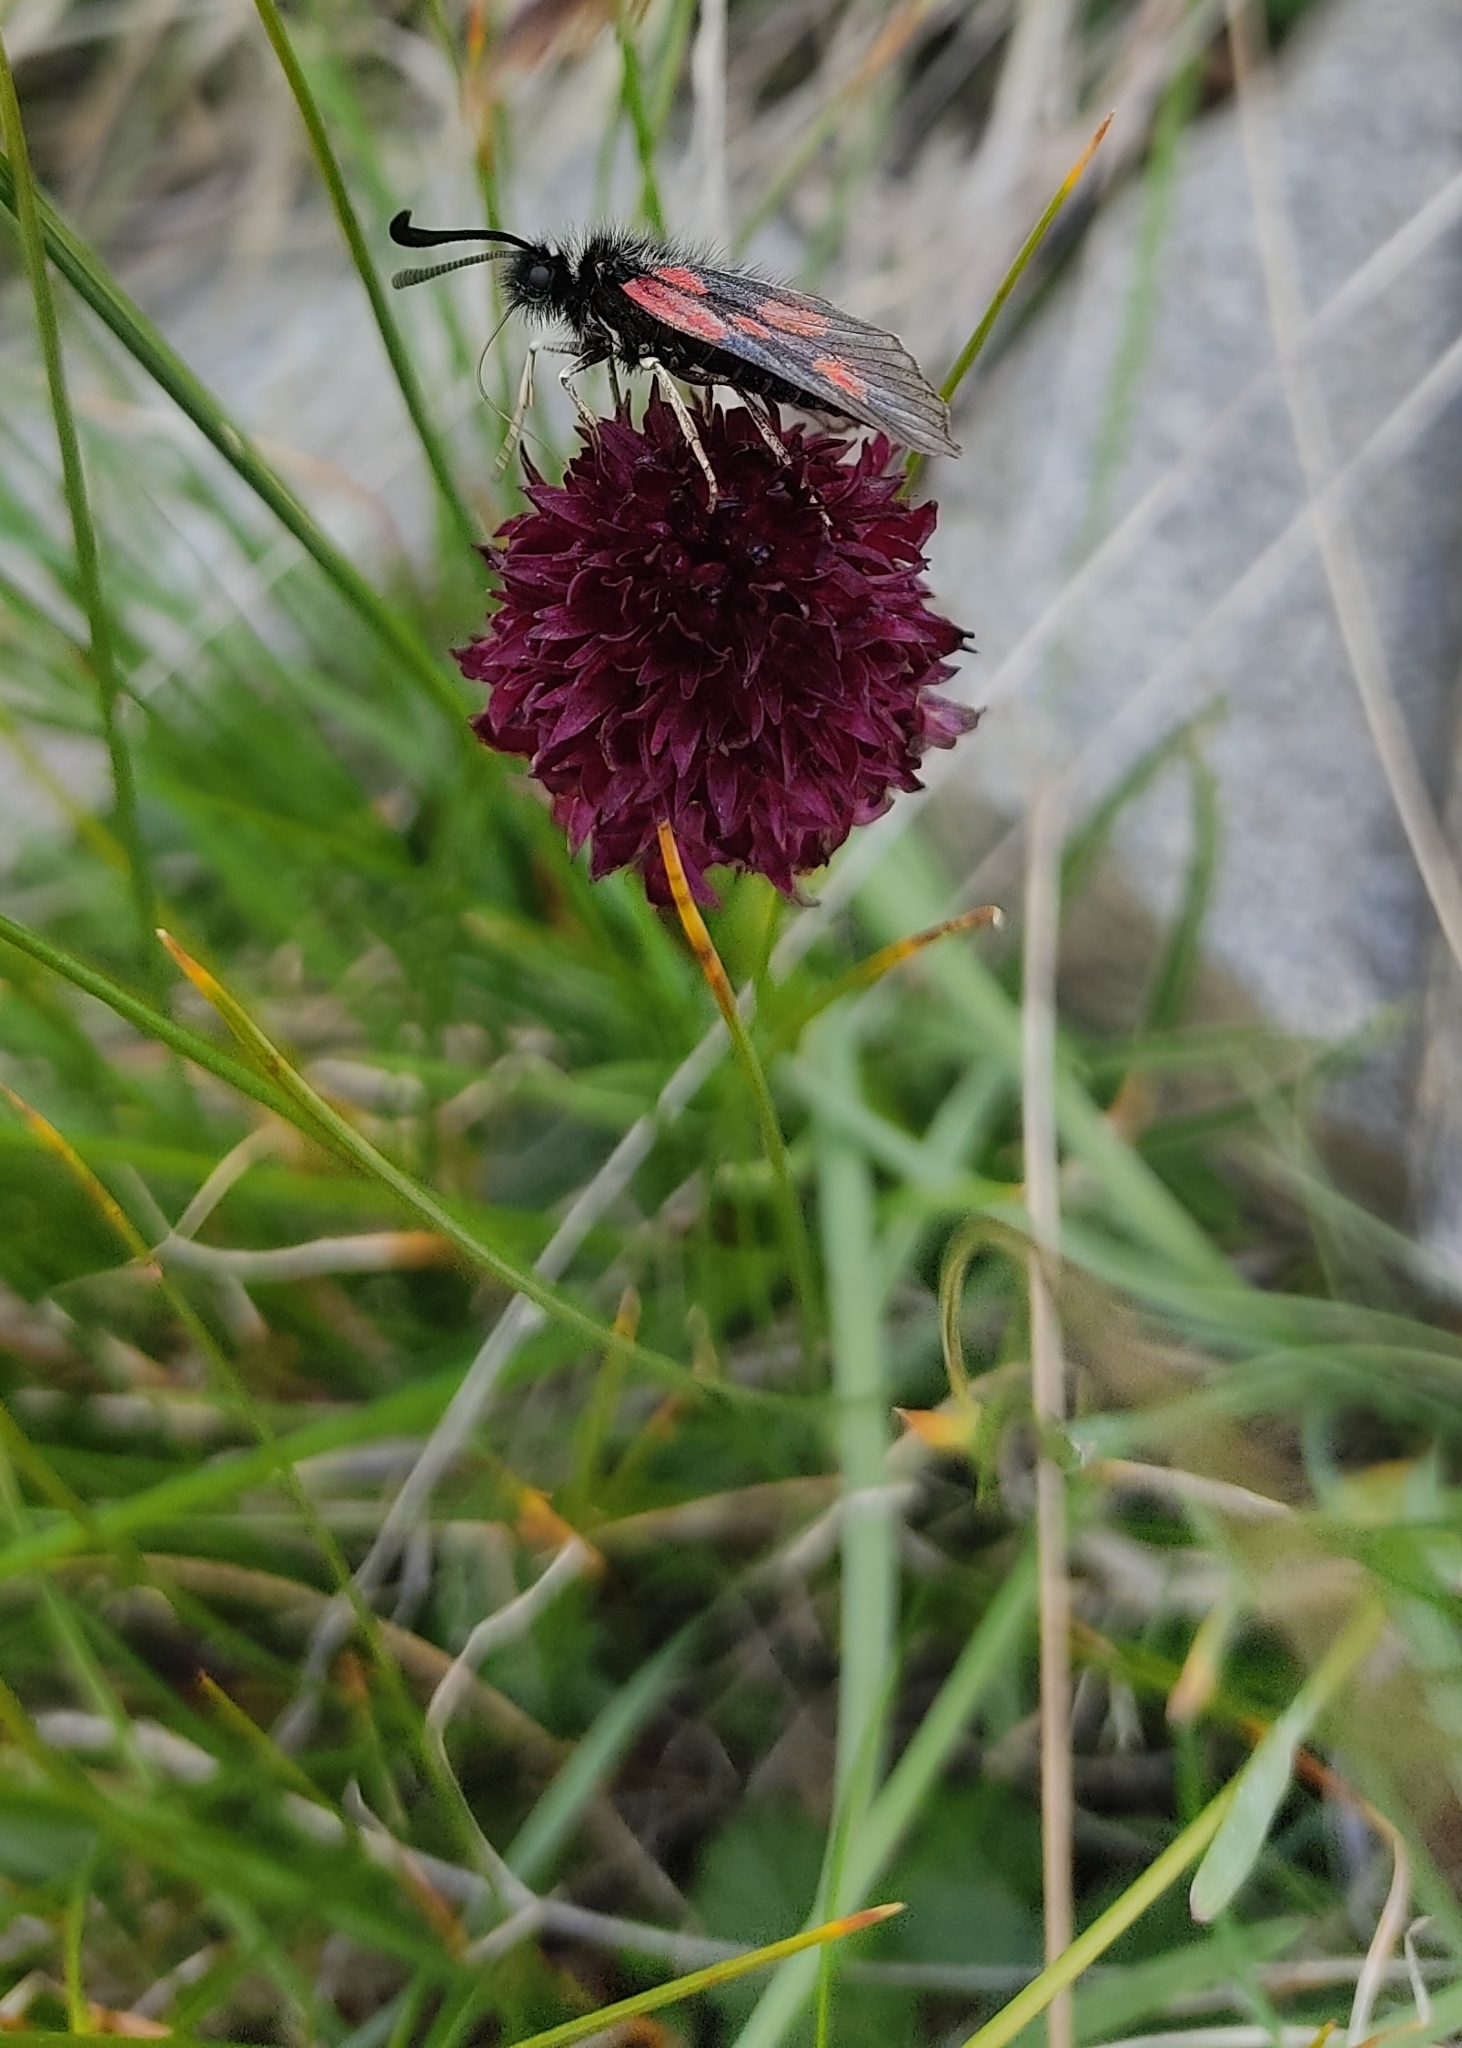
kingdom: Plantae
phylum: Tracheophyta
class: Liliopsida
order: Asparagales
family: Orchidaceae
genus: Gymnadenia
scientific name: Gymnadenia rhellicani
